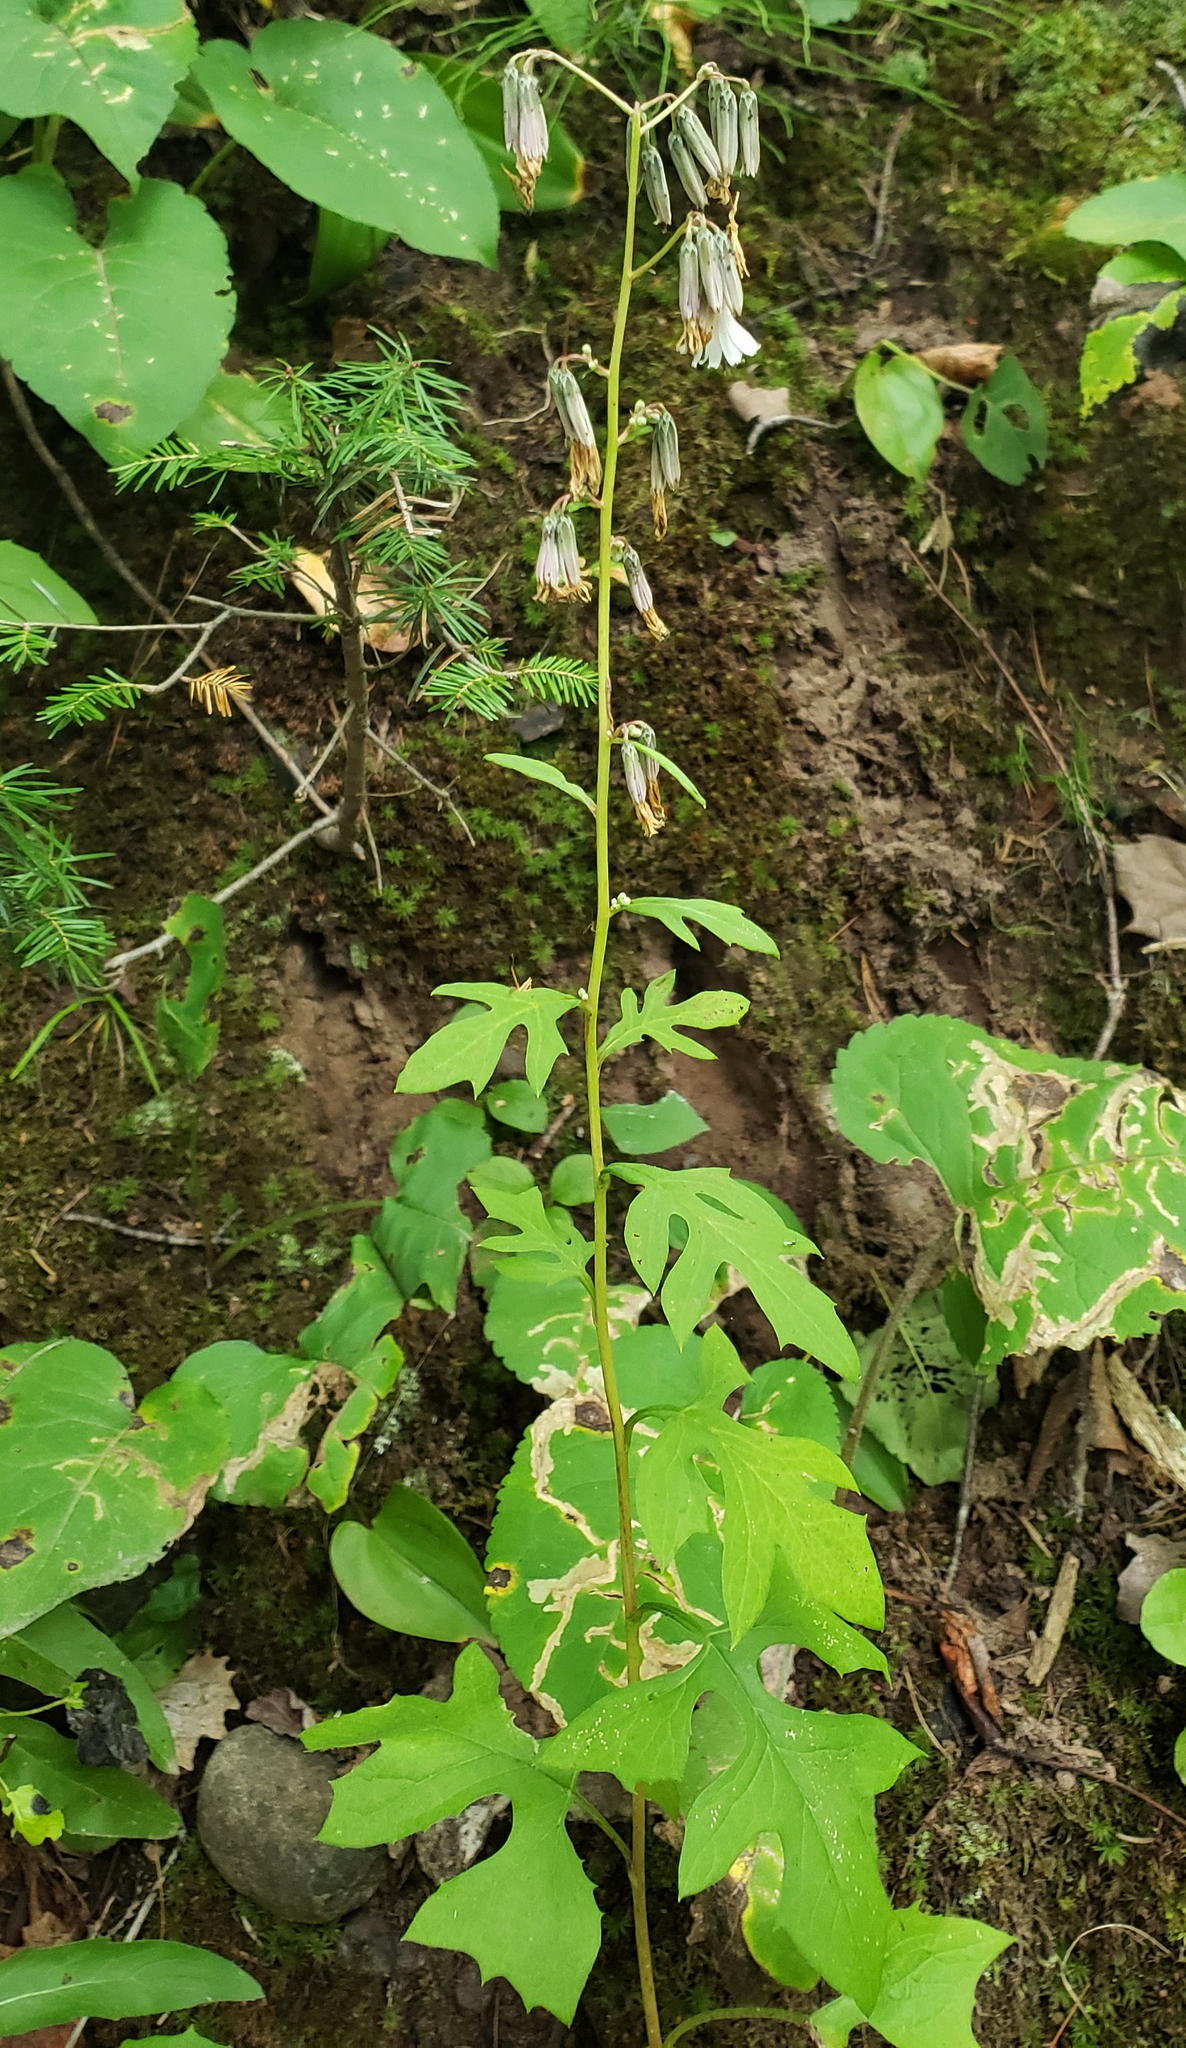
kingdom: Plantae
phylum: Tracheophyta
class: Magnoliopsida
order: Asterales
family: Asteraceae
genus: Nabalus
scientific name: Nabalus albus
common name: White rattlesnakeroot
